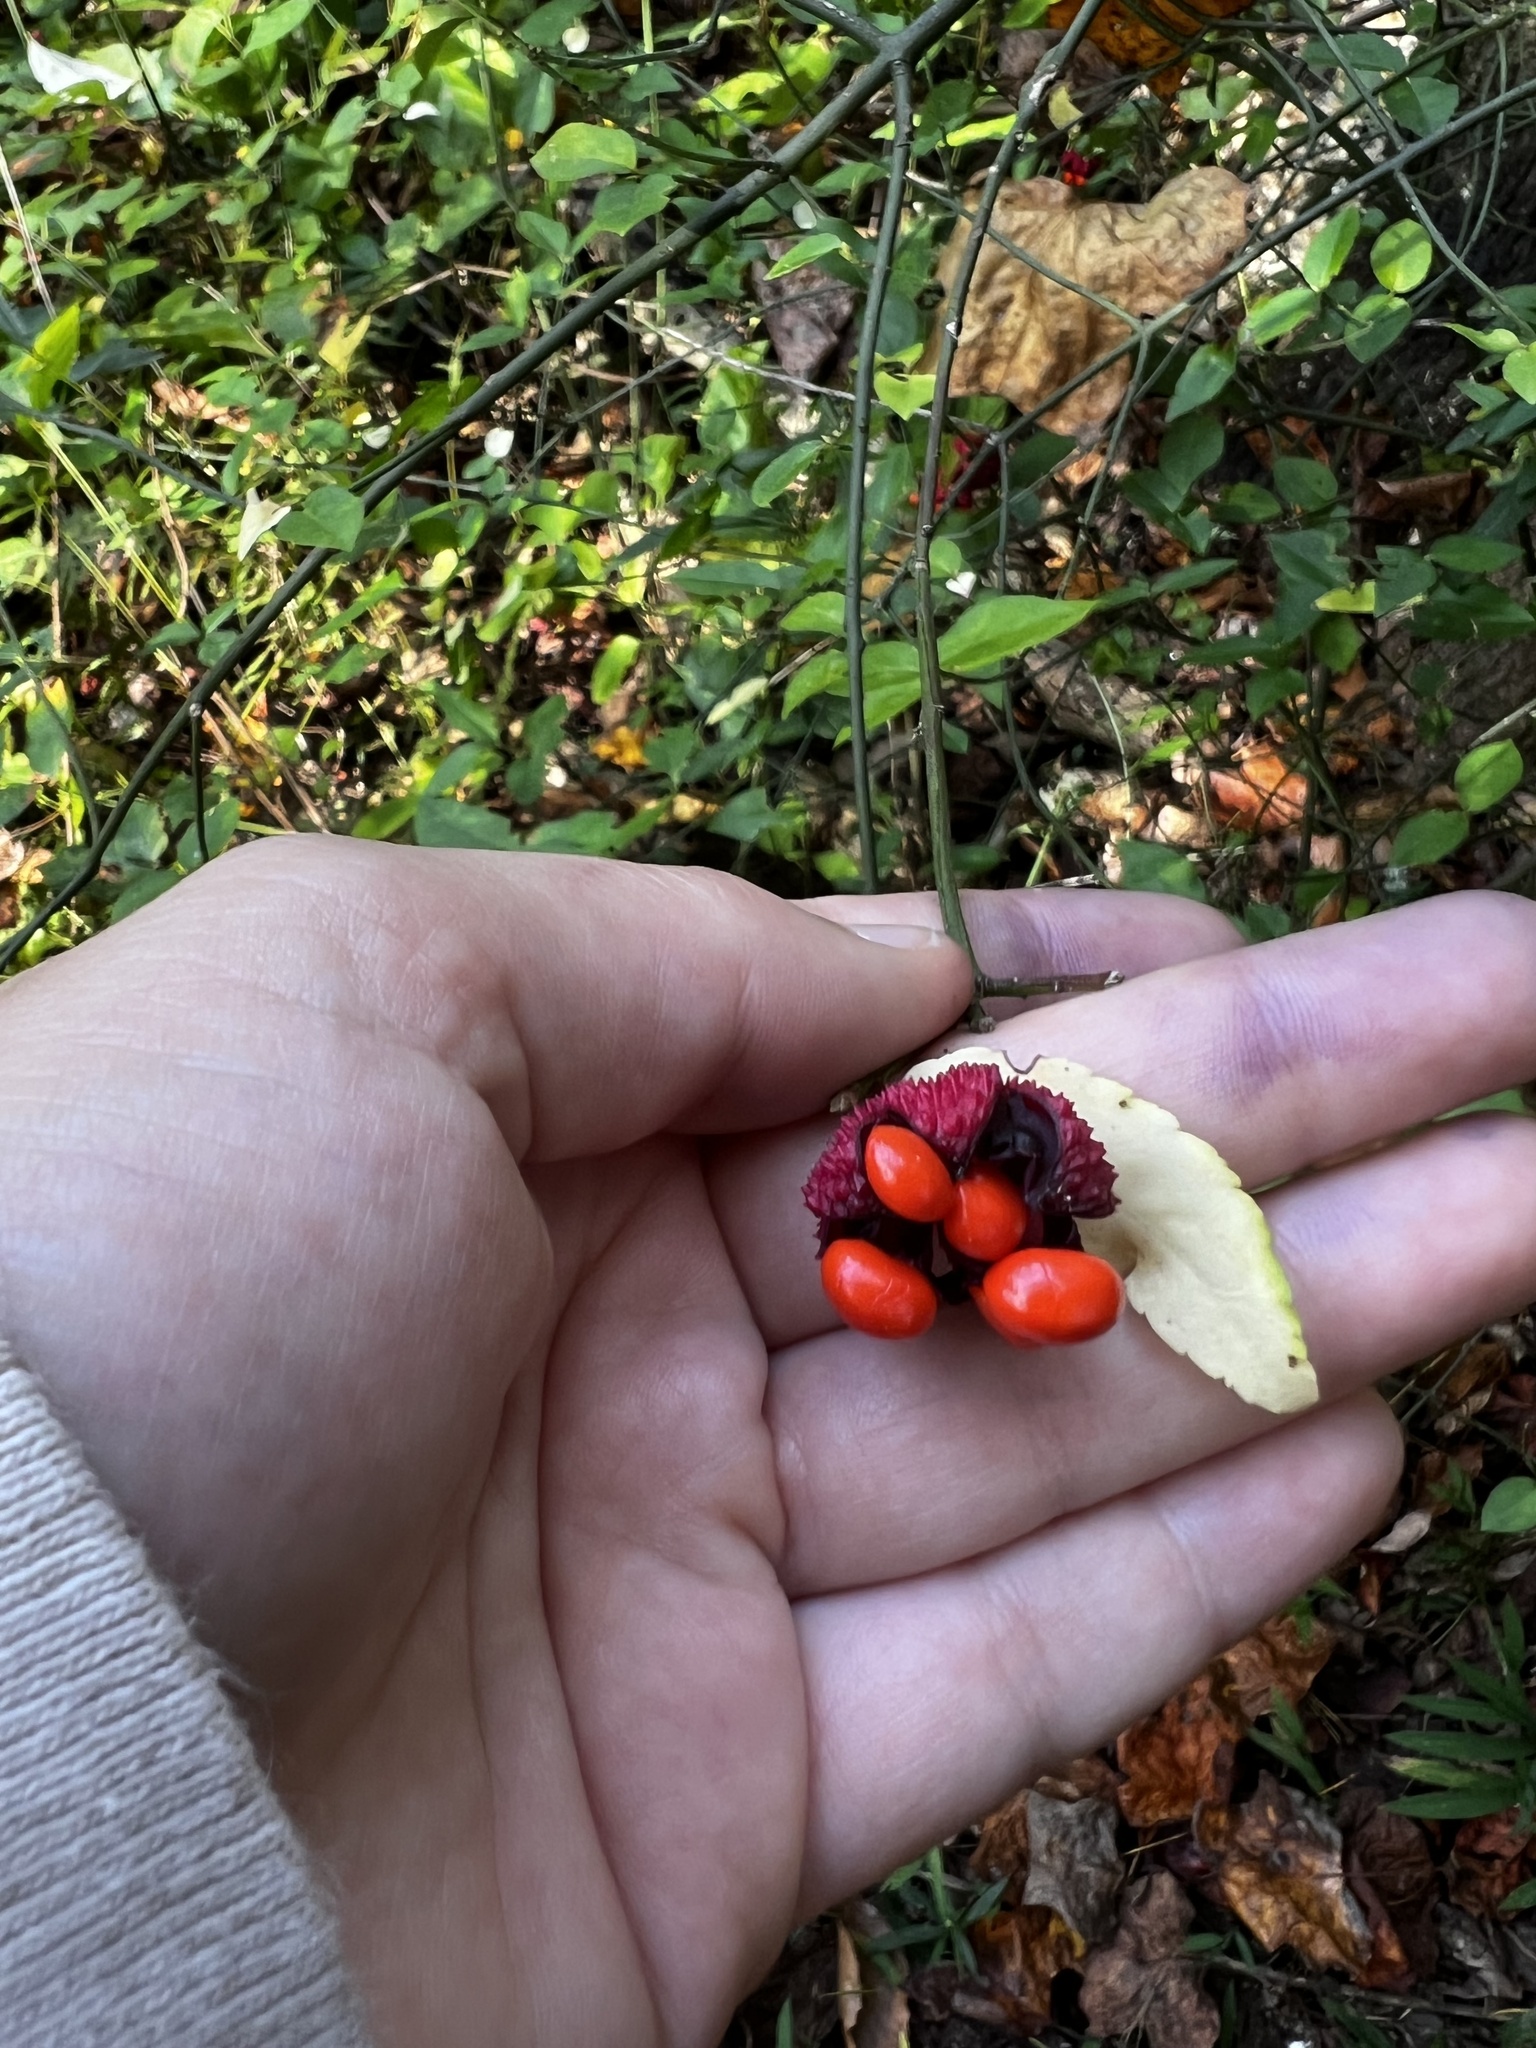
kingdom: Plantae
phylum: Tracheophyta
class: Magnoliopsida
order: Celastrales
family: Celastraceae
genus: Euonymus
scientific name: Euonymus americanus
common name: Bursting-heart
